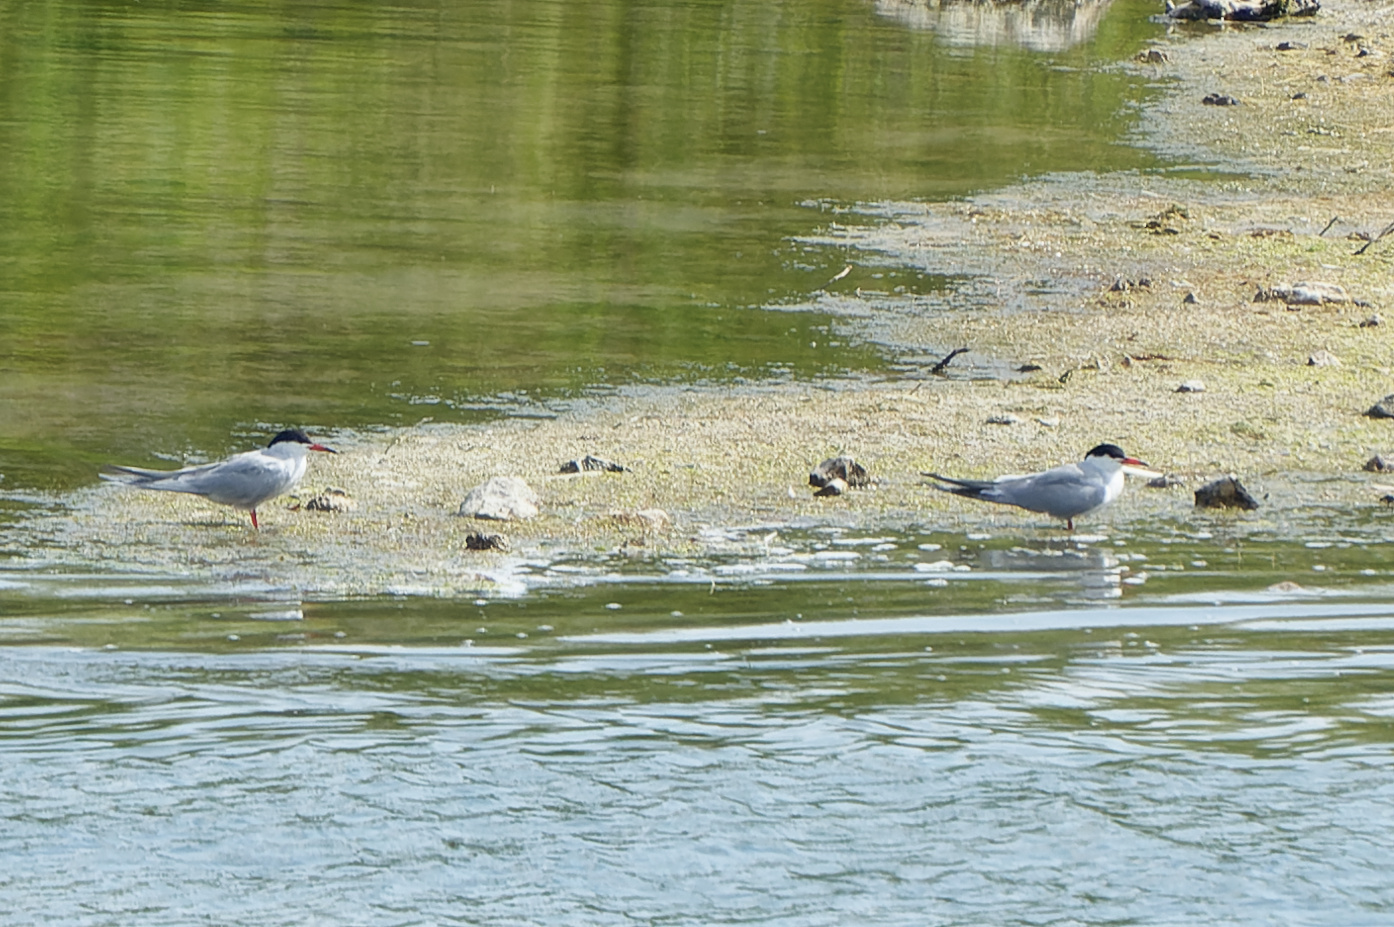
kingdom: Animalia
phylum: Chordata
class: Aves
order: Charadriiformes
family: Laridae
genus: Sterna
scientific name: Sterna hirundo
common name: Common tern
